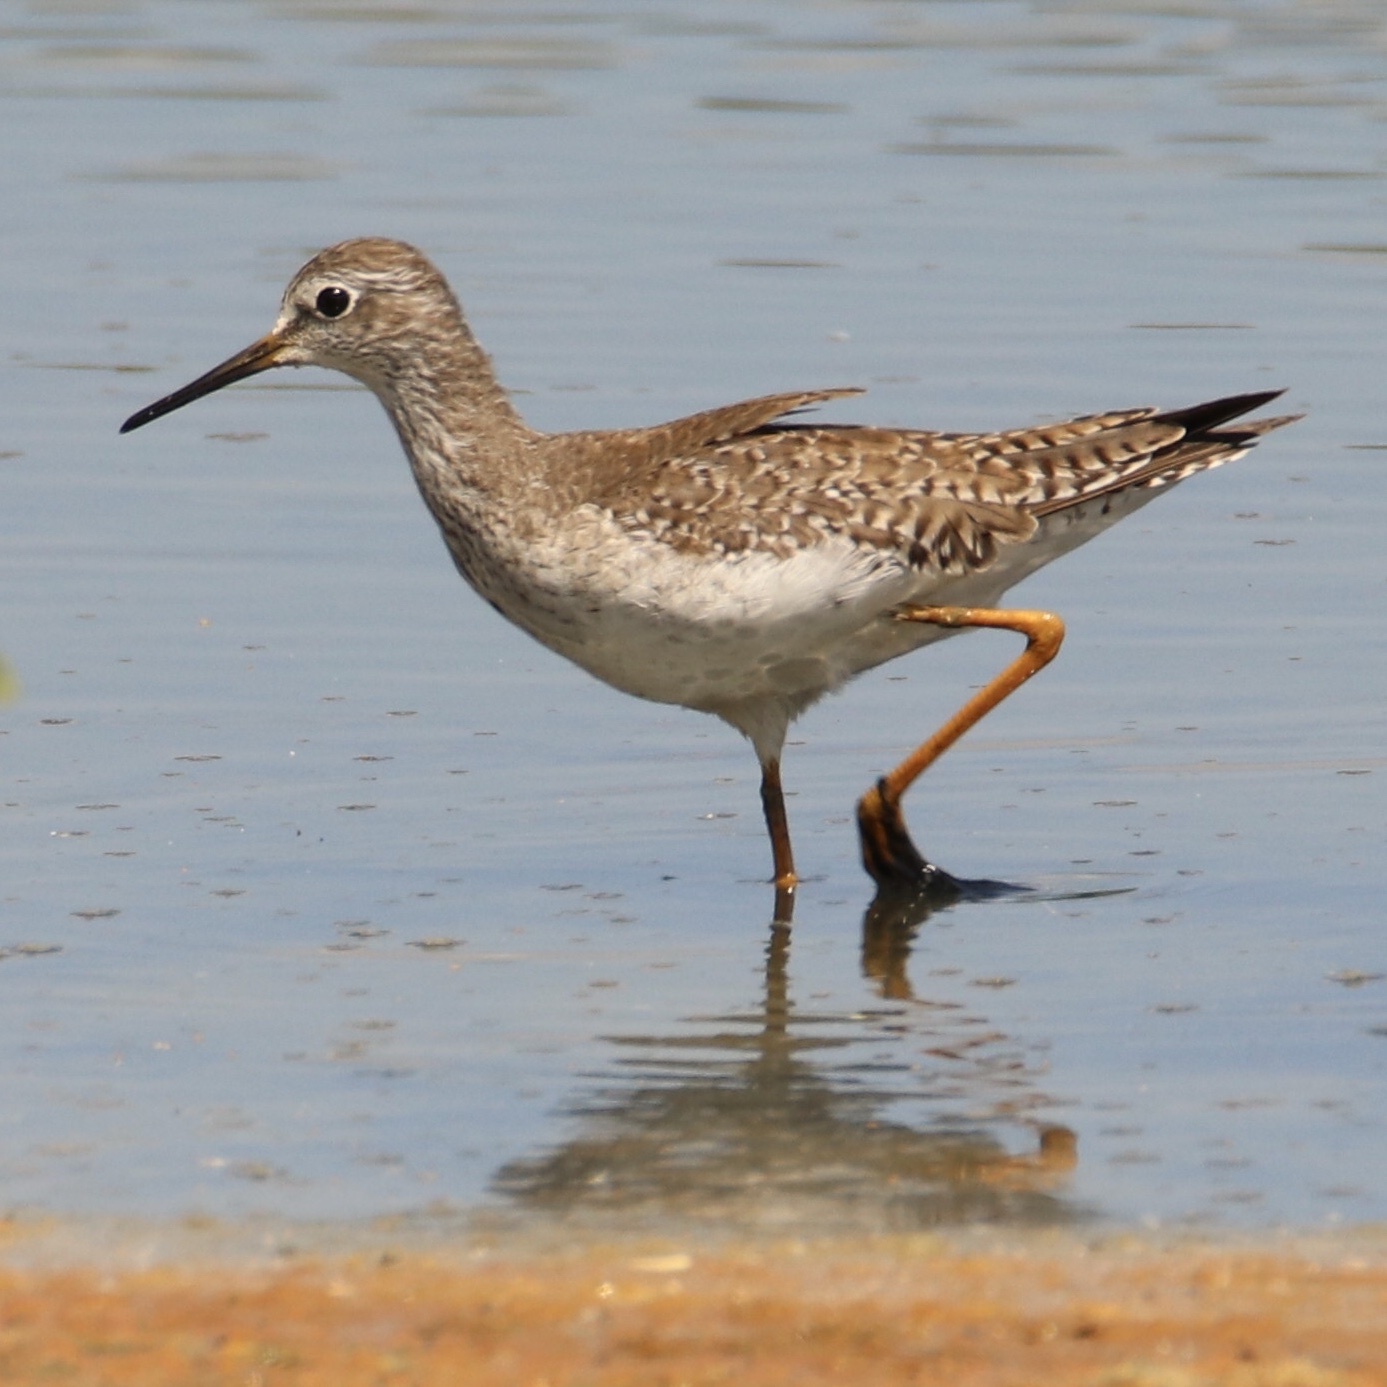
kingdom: Animalia
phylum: Chordata
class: Aves
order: Charadriiformes
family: Scolopacidae
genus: Tringa
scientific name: Tringa flavipes
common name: Lesser yellowlegs
